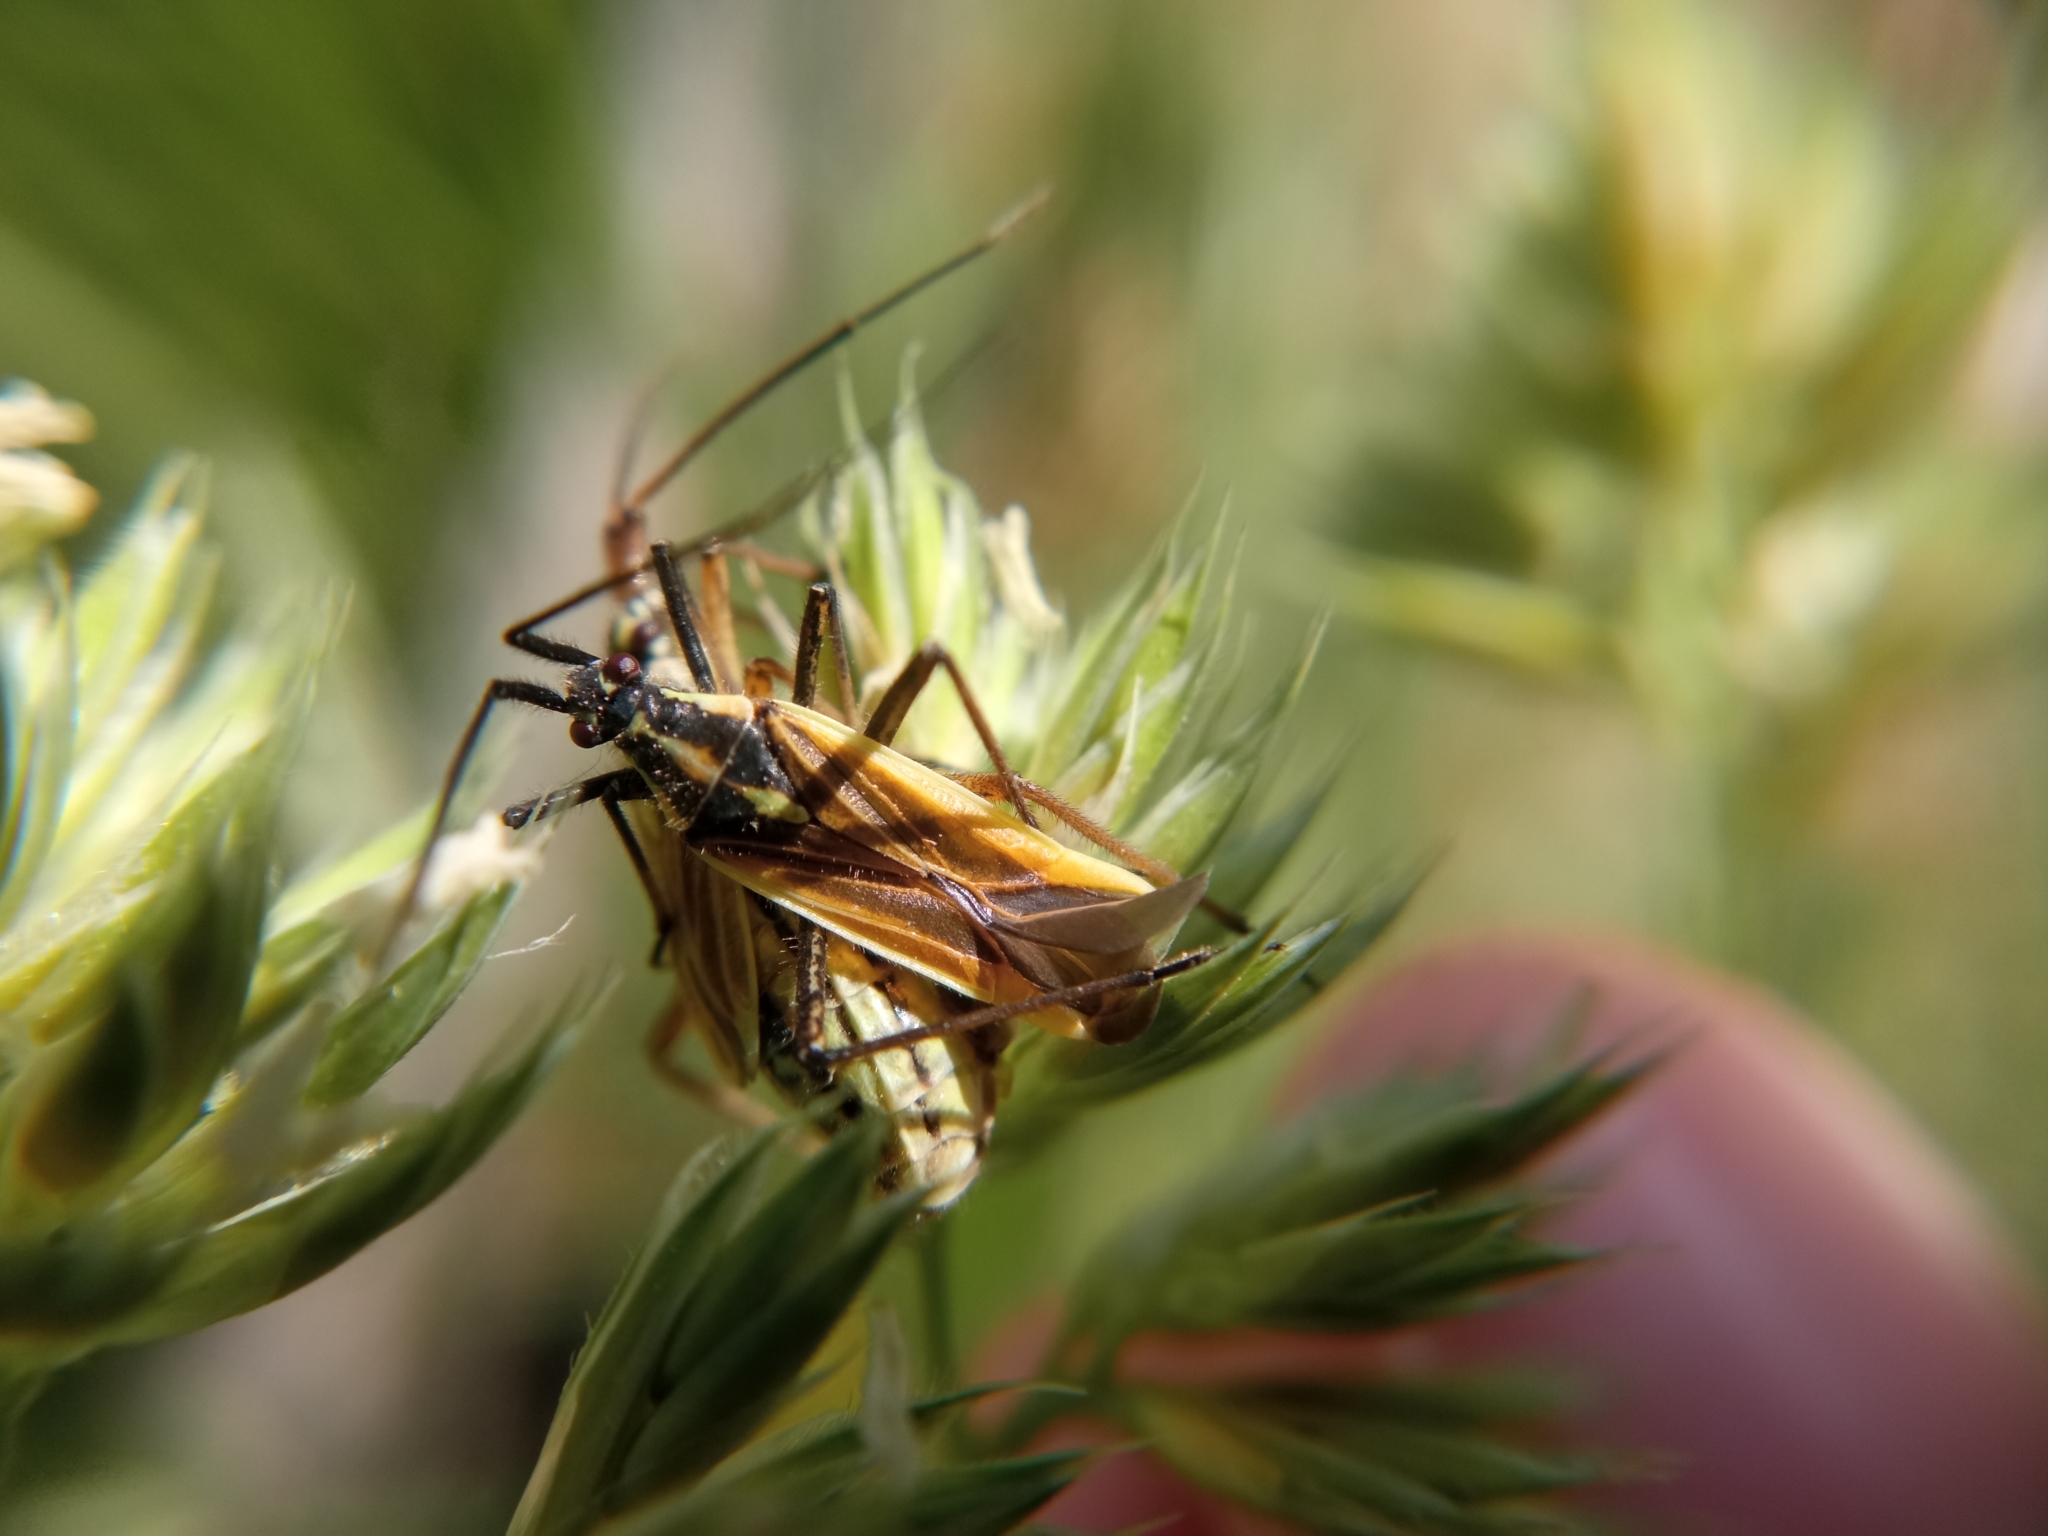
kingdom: Animalia
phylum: Arthropoda
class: Insecta
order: Hemiptera
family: Miridae
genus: Leptopterna
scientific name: Leptopterna dolabrata
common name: Meadow plant bug
